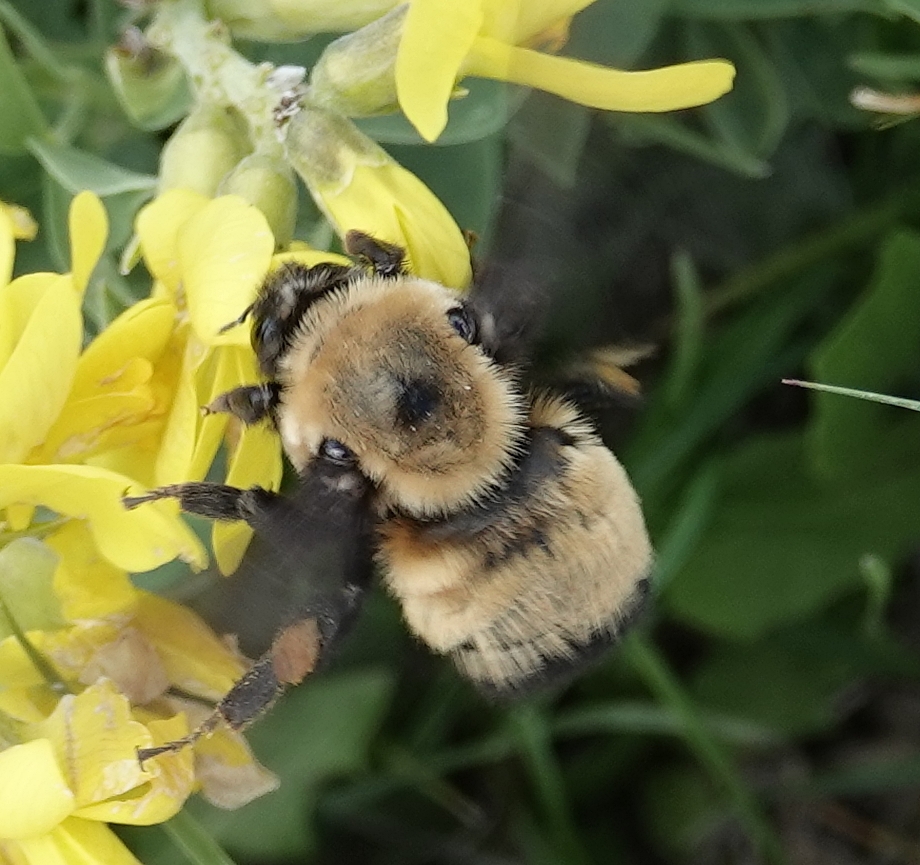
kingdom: Animalia
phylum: Arthropoda
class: Insecta
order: Hymenoptera
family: Apidae
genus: Bombus
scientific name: Bombus nevadensis
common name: Nevada bumble bee
